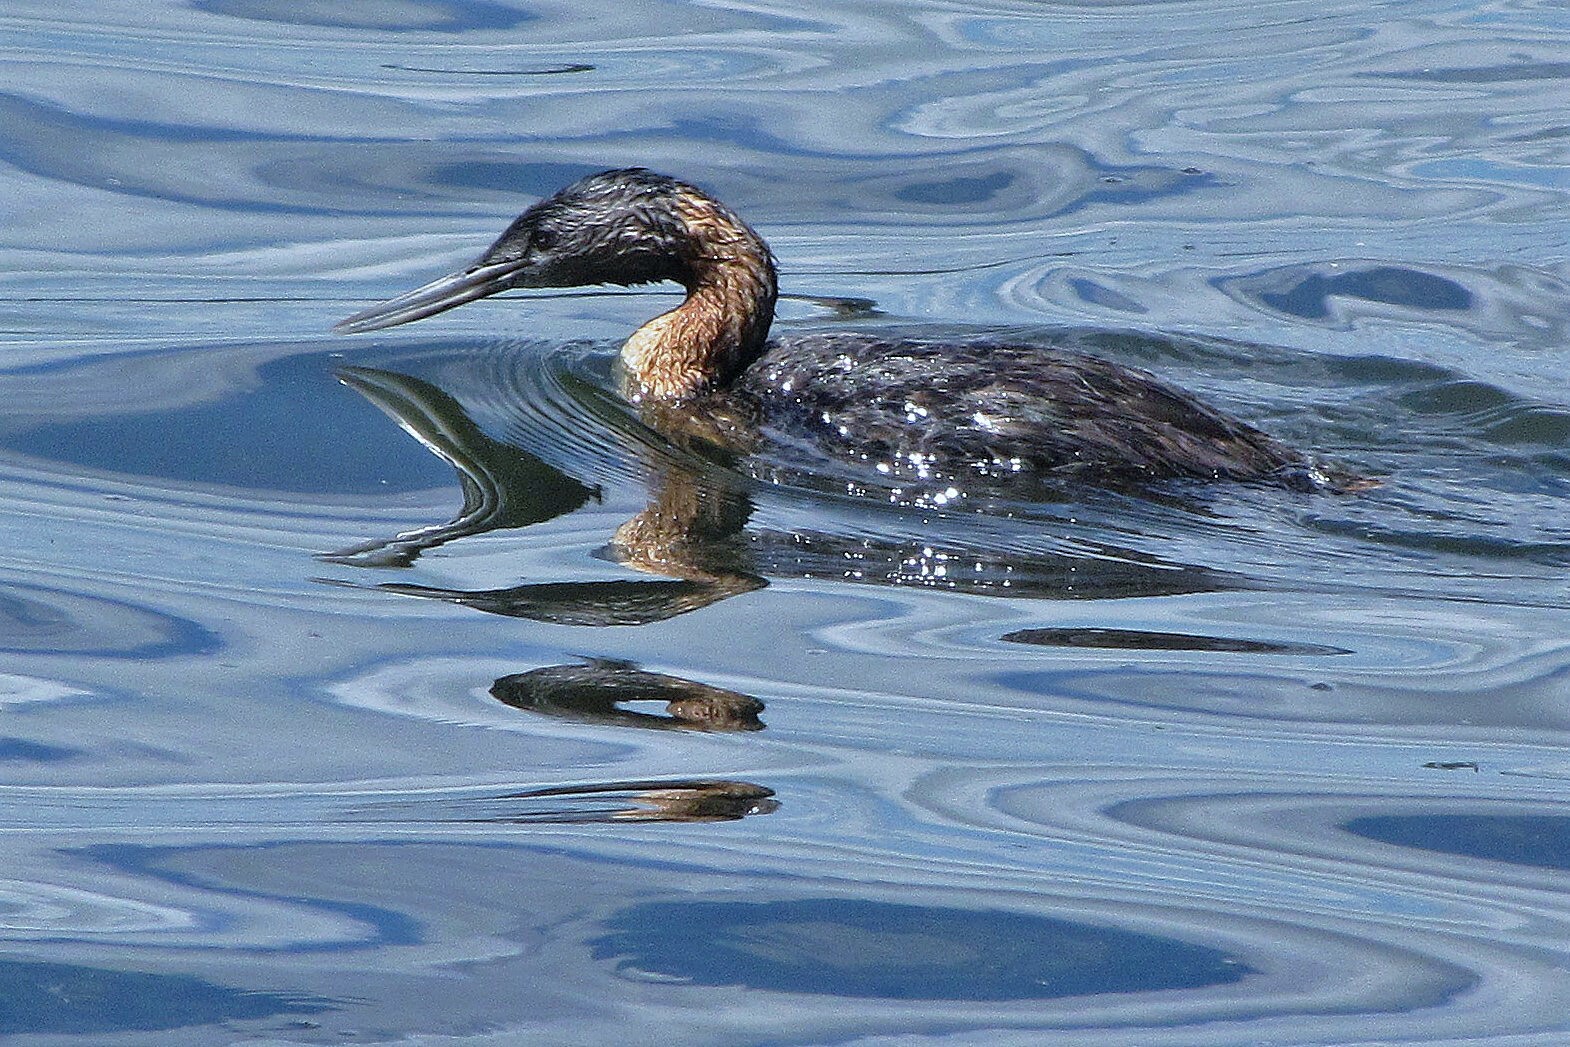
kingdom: Animalia
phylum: Chordata
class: Aves
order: Podicipediformes
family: Podicipedidae
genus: Podiceps
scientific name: Podiceps major
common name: Great grebe
